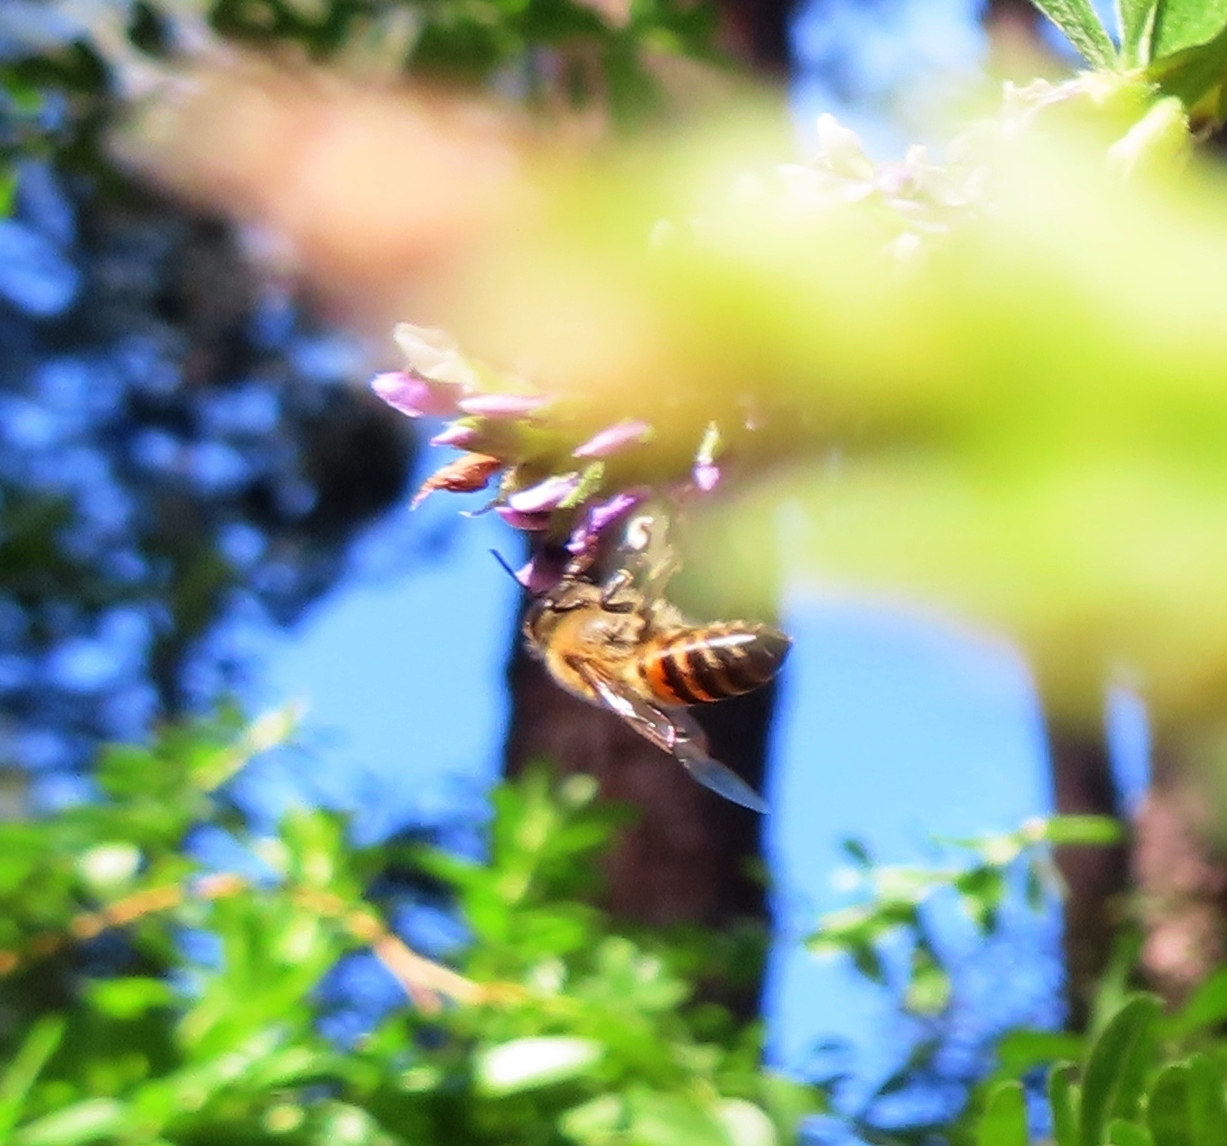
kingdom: Animalia
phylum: Arthropoda
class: Insecta
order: Hymenoptera
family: Apidae
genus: Apis
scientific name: Apis mellifera
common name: Honey bee
